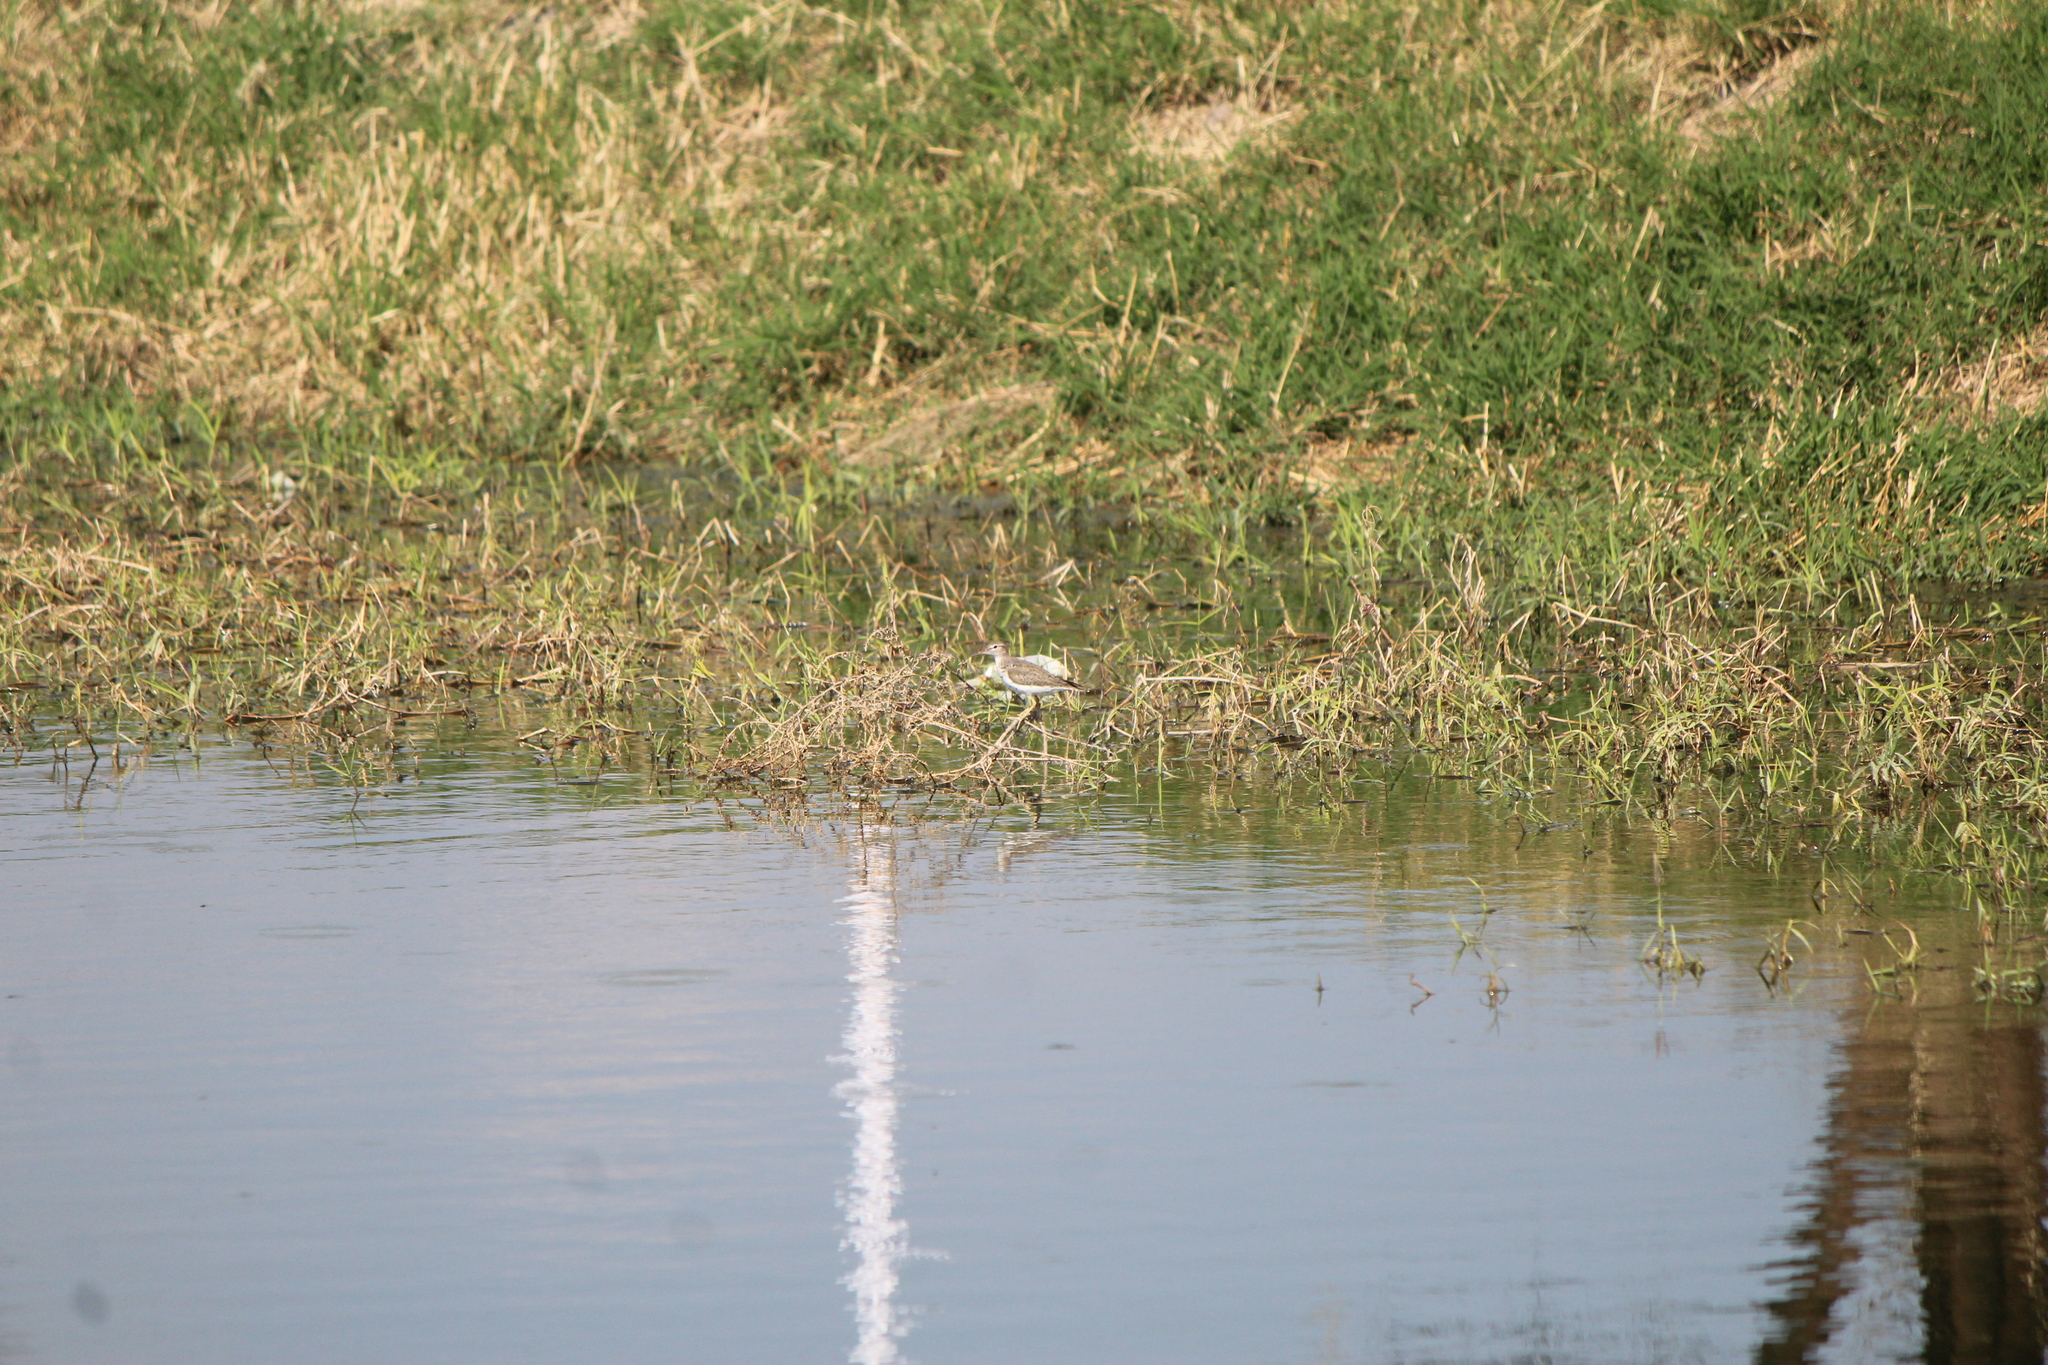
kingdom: Animalia
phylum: Chordata
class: Aves
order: Charadriiformes
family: Scolopacidae
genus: Actitis
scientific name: Actitis macularius
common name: Spotted sandpiper
